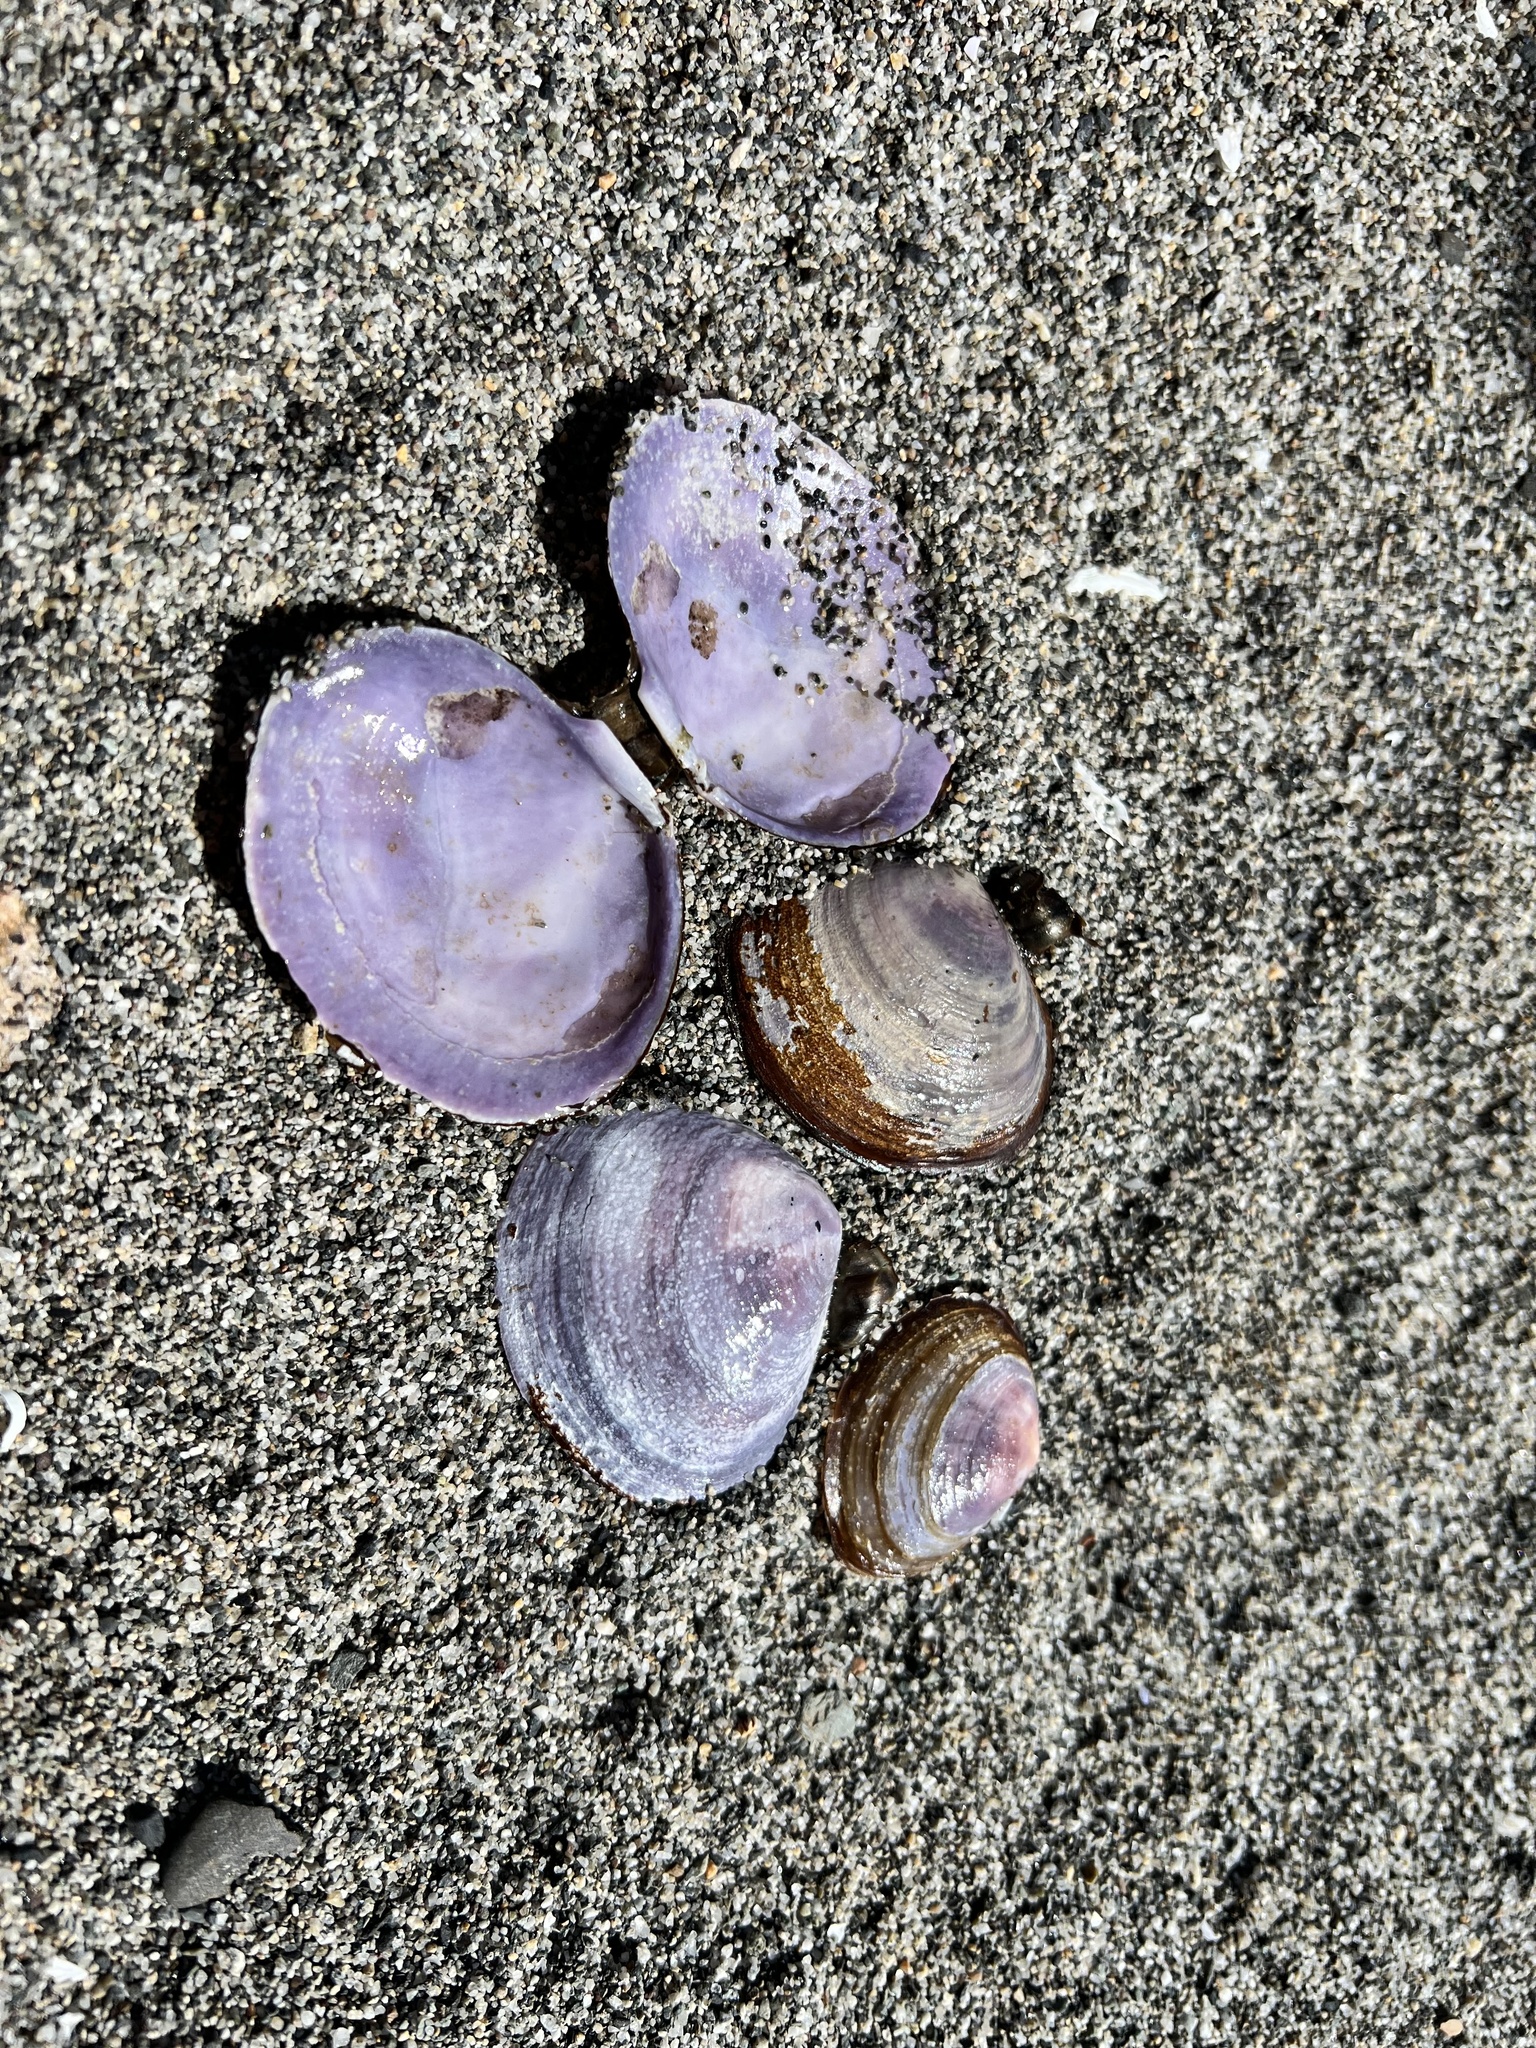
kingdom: Animalia
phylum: Mollusca
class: Bivalvia
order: Cardiida
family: Psammobiidae
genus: Nuttallia
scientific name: Nuttallia obscurata
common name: Purple mahogany-clam
